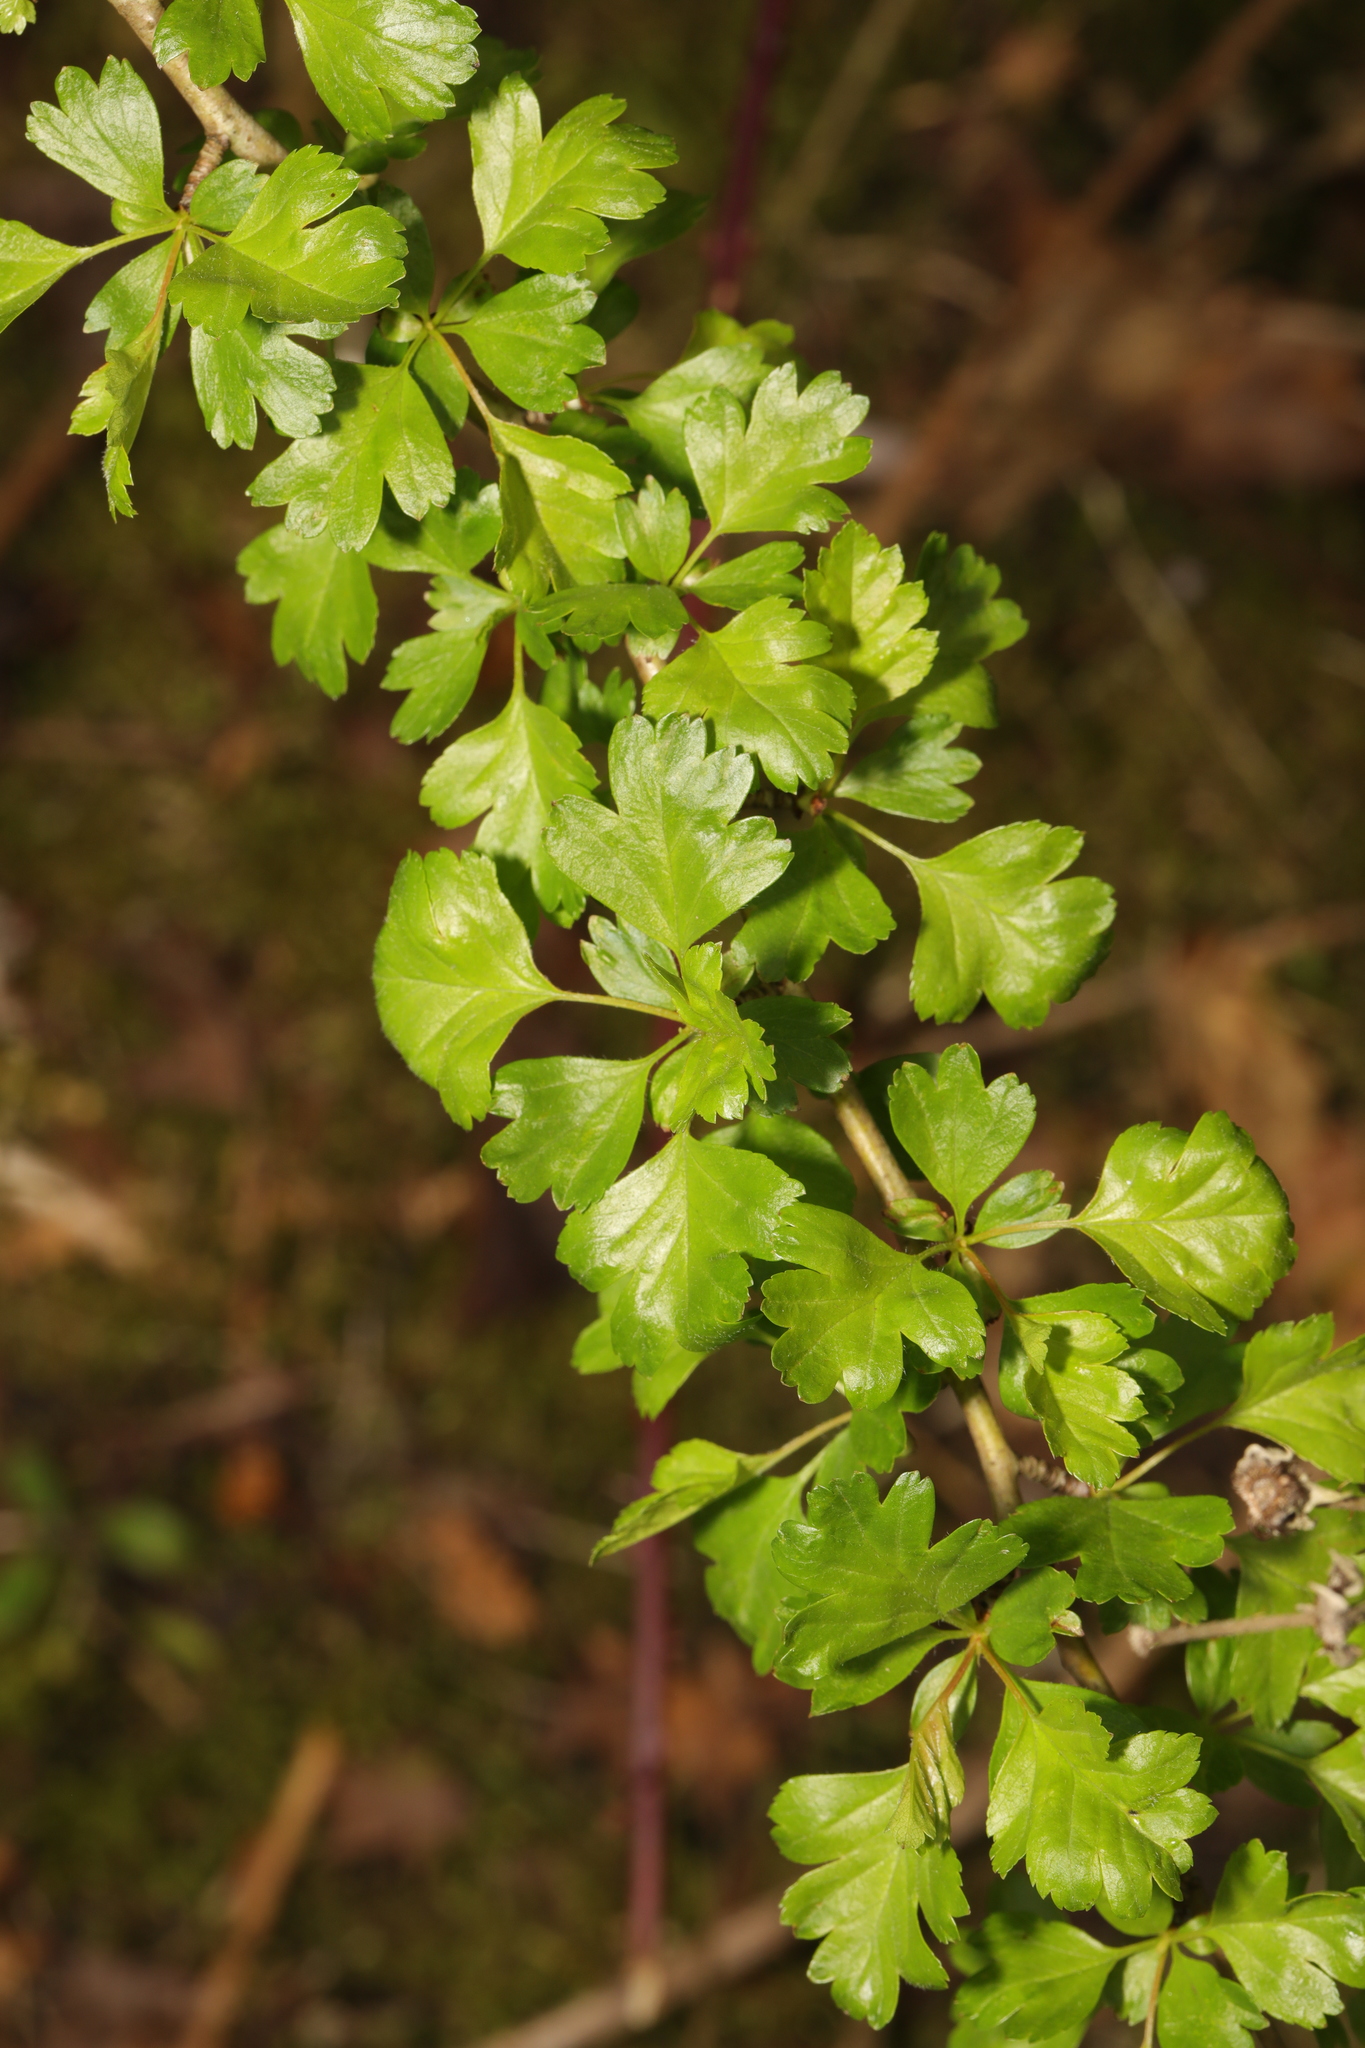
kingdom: Plantae
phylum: Tracheophyta
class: Magnoliopsida
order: Rosales
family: Rosaceae
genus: Crataegus
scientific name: Crataegus monogyna
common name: Hawthorn
